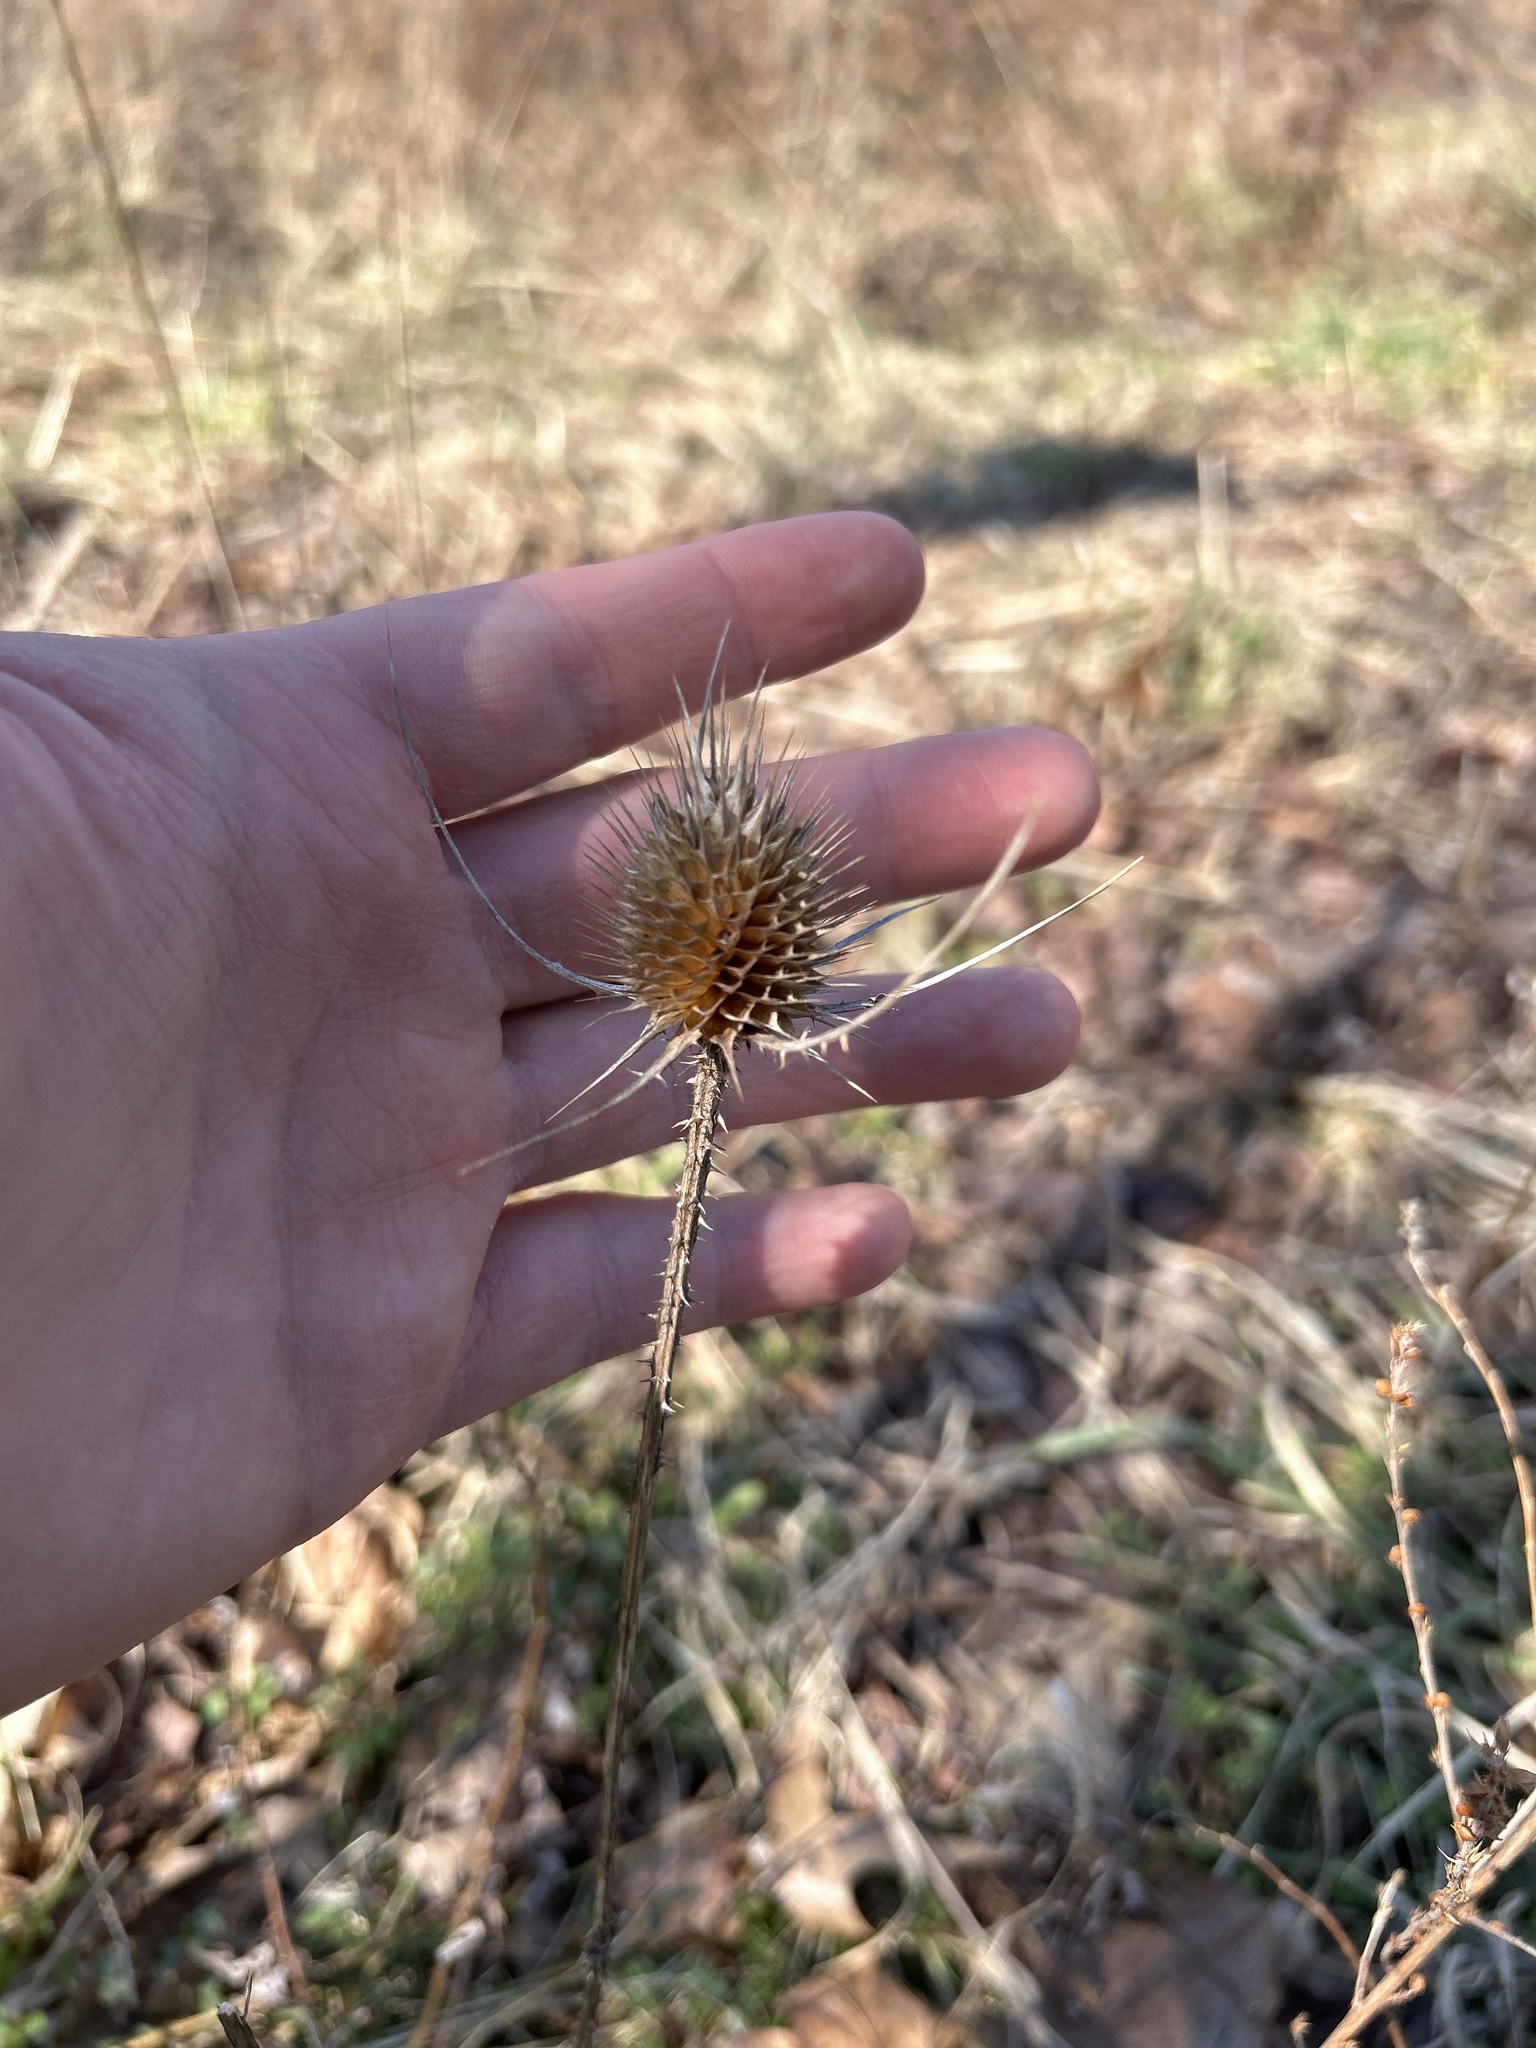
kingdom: Plantae
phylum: Tracheophyta
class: Magnoliopsida
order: Dipsacales
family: Caprifoliaceae
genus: Dipsacus
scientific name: Dipsacus fullonum
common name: Teasel
